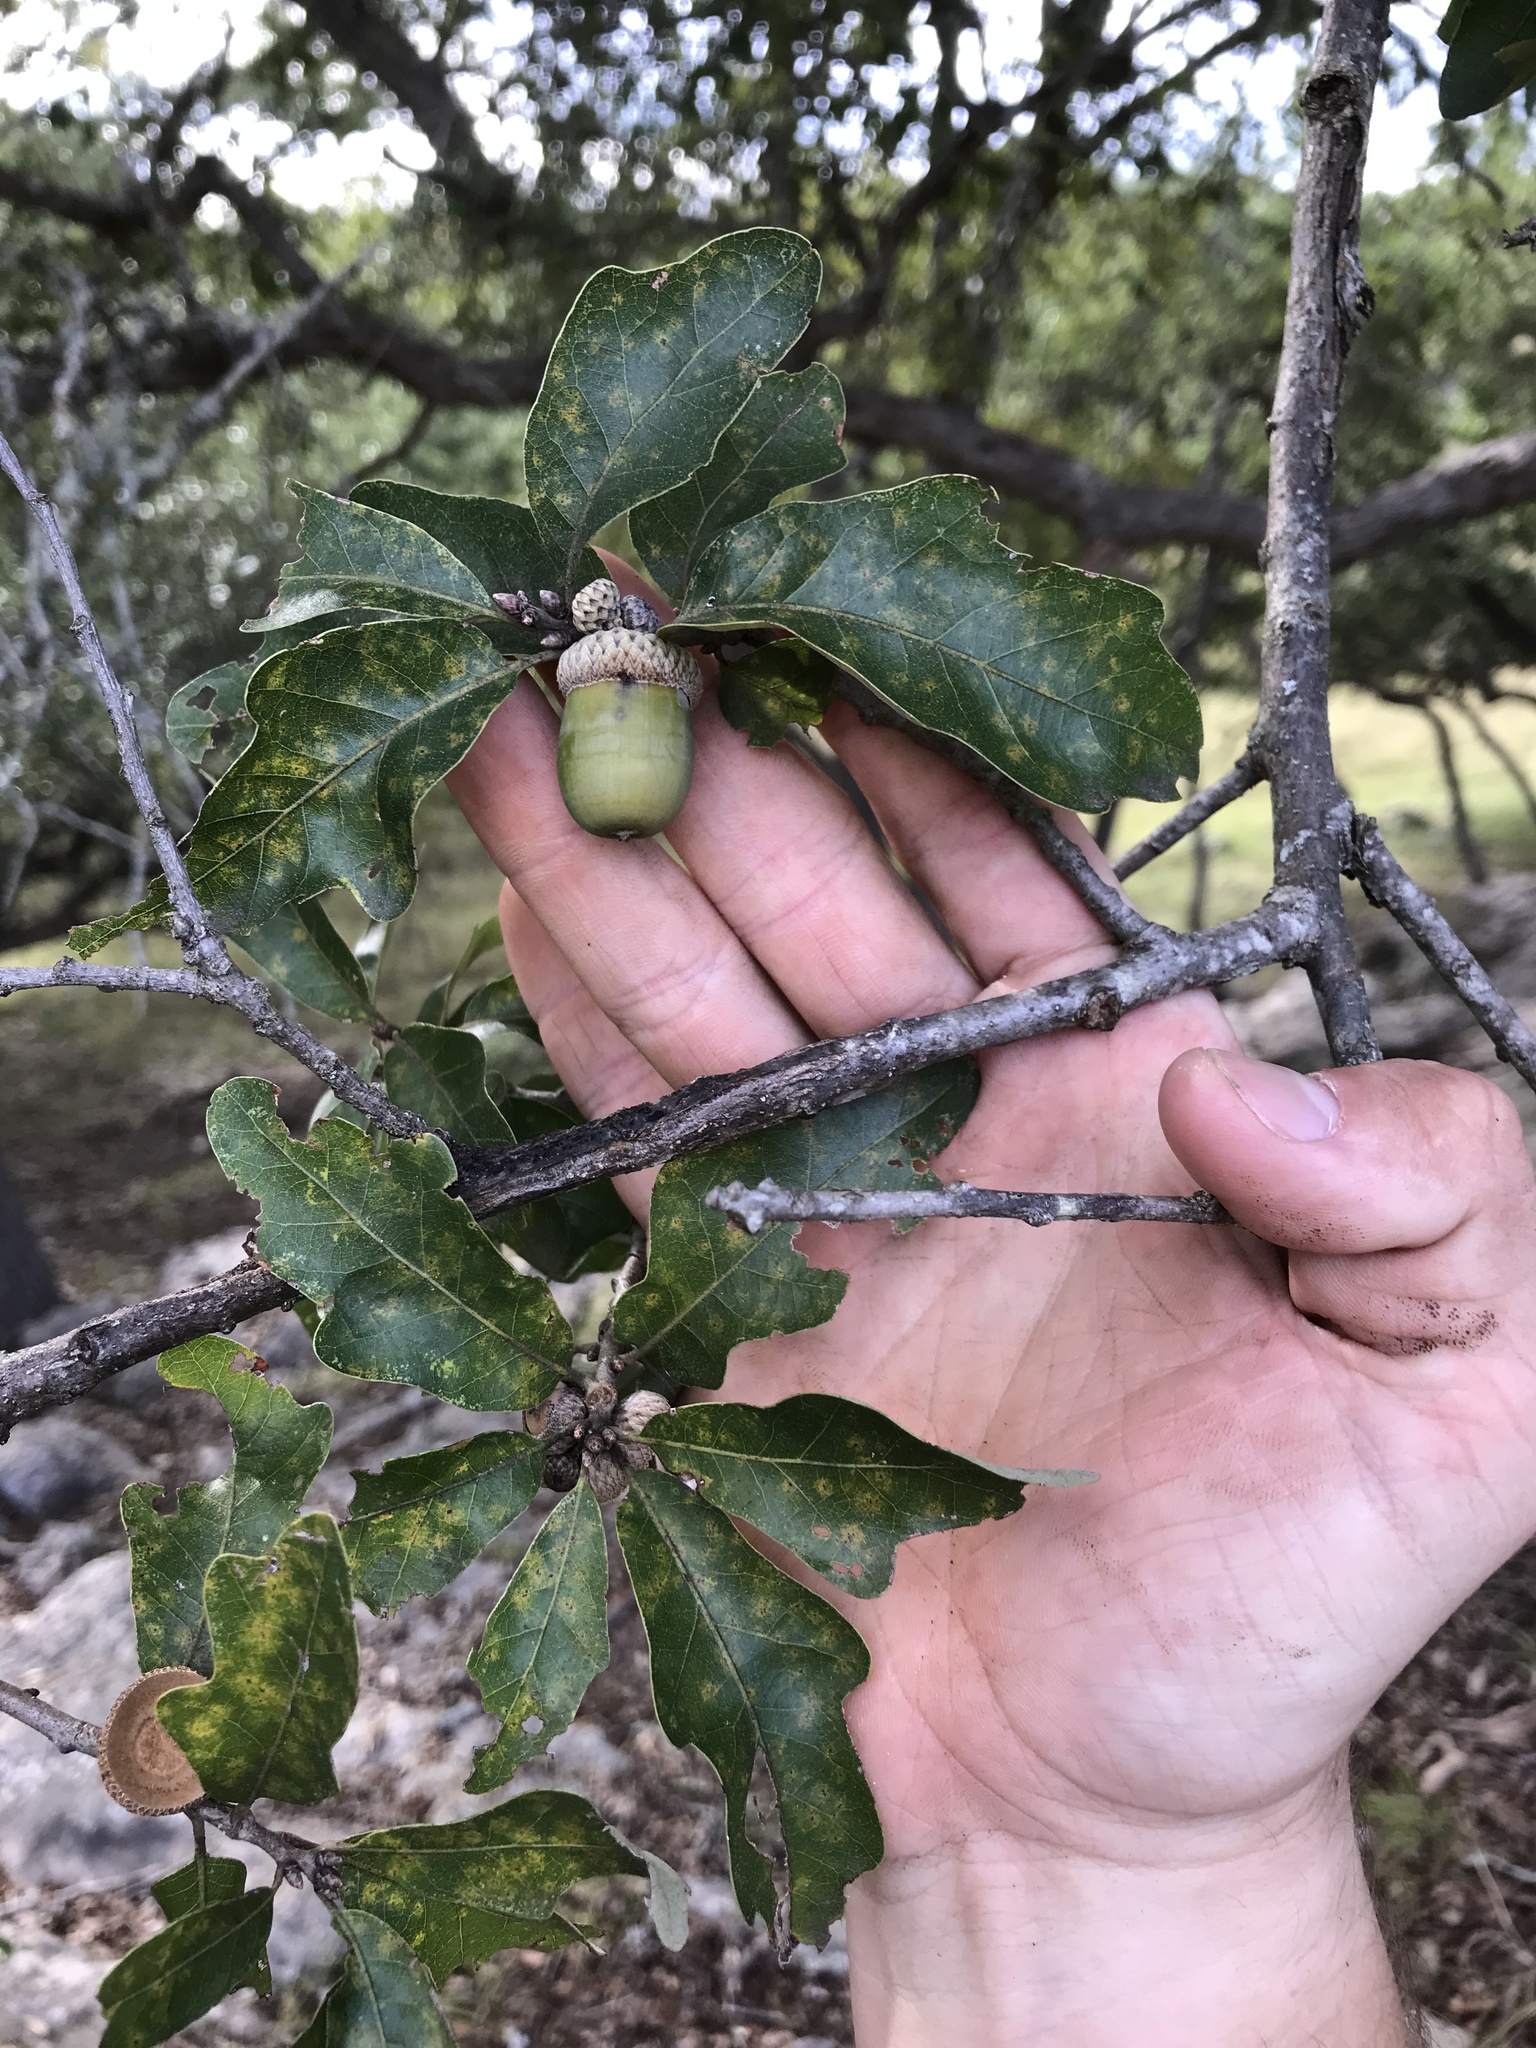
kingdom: Plantae
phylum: Tracheophyta
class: Magnoliopsida
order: Fagales
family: Fagaceae
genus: Quercus
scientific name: Quercus sinuata
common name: Durand oak
